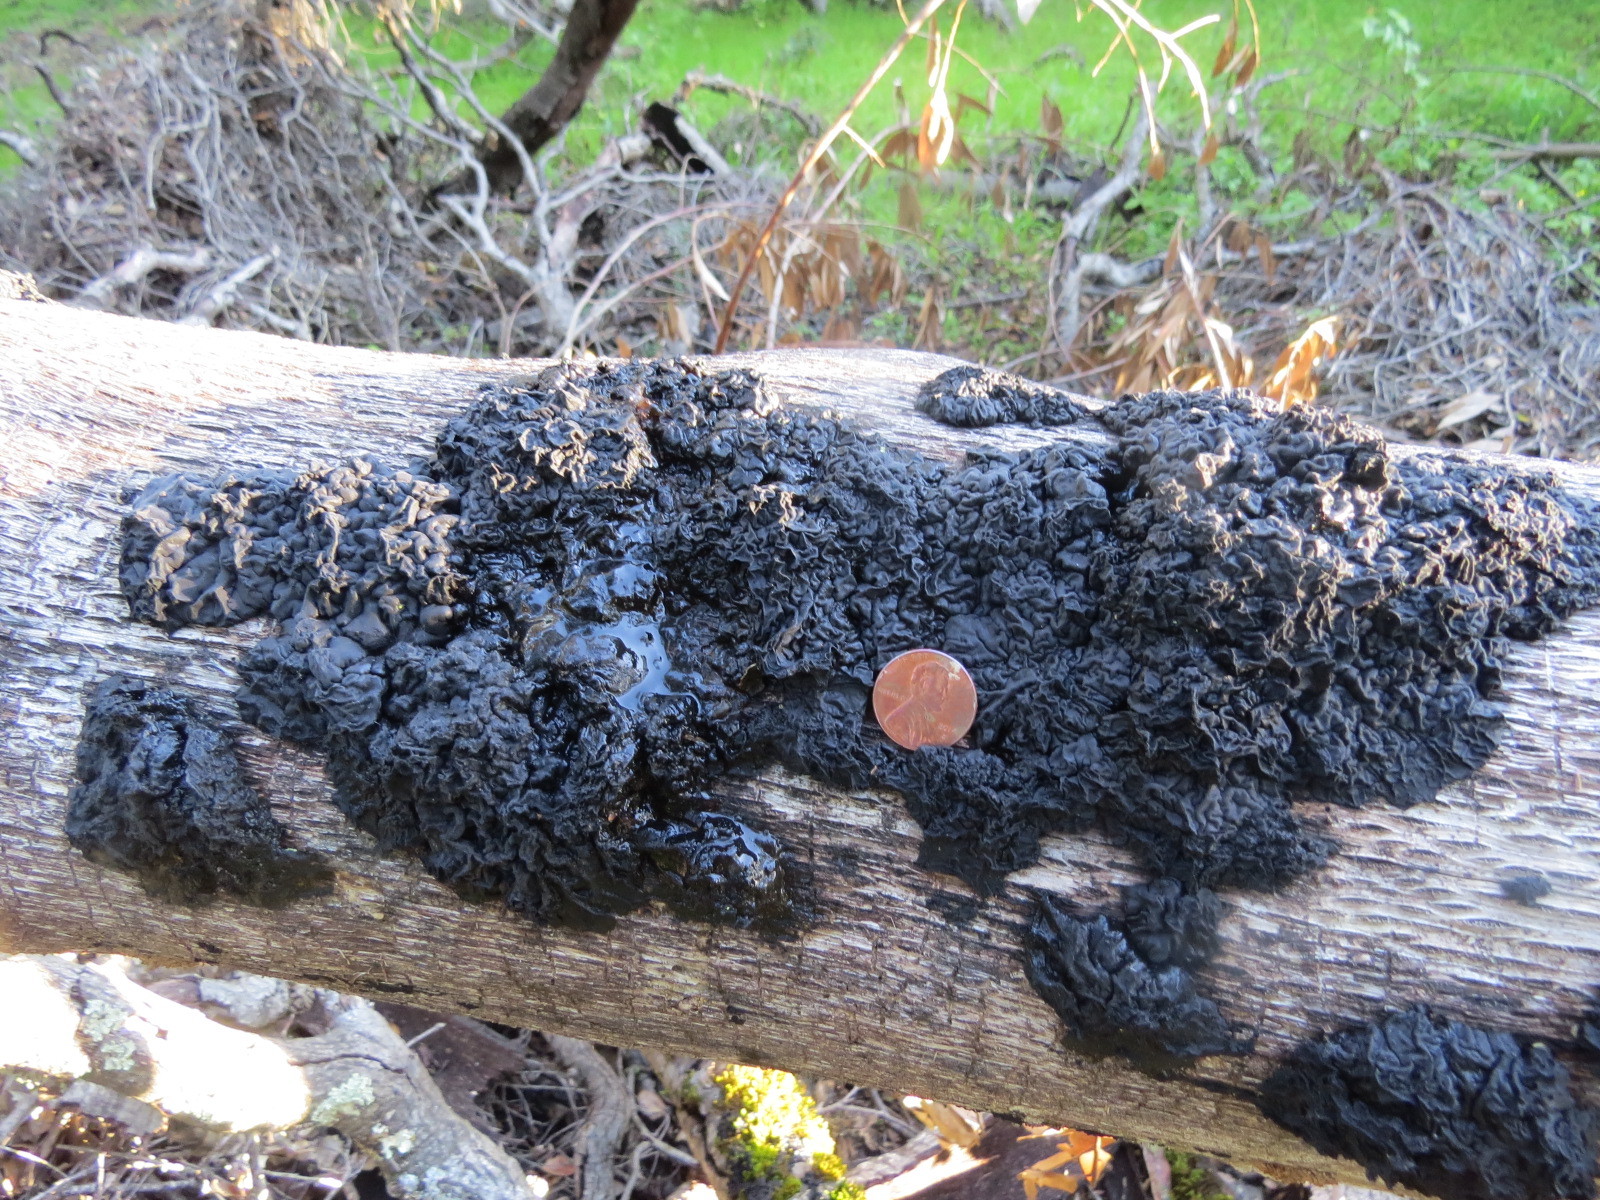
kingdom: Fungi
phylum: Basidiomycota
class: Agaricomycetes
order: Auriculariales
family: Auriculariaceae
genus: Exidia
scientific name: Exidia glandulosa
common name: Witches' butter
